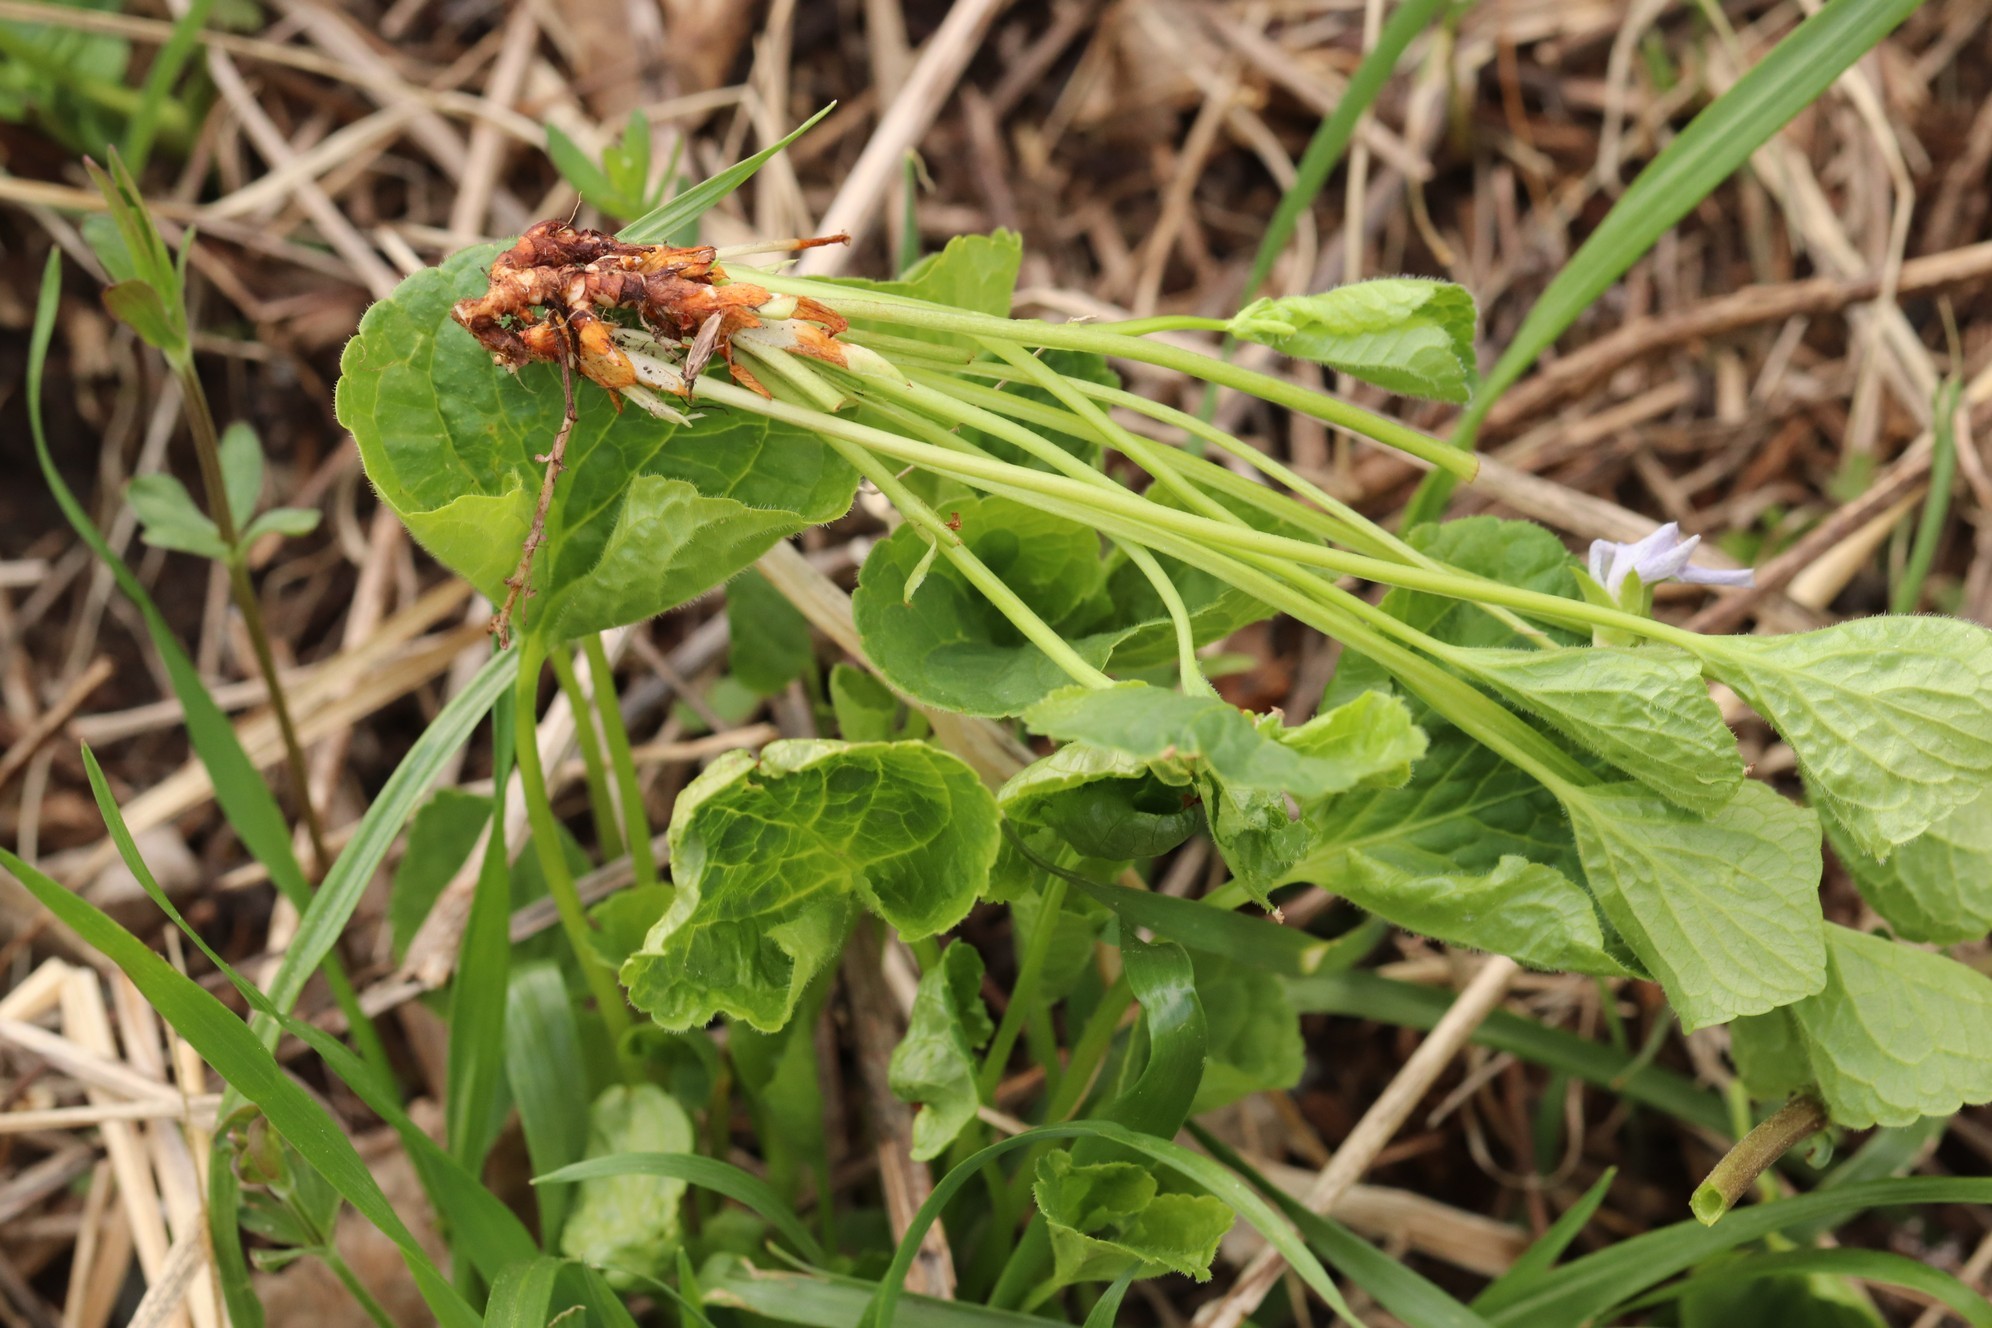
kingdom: Plantae
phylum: Tracheophyta
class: Magnoliopsida
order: Malpighiales
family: Violaceae
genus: Viola
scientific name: Viola mirabilis
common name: Wonder violet
